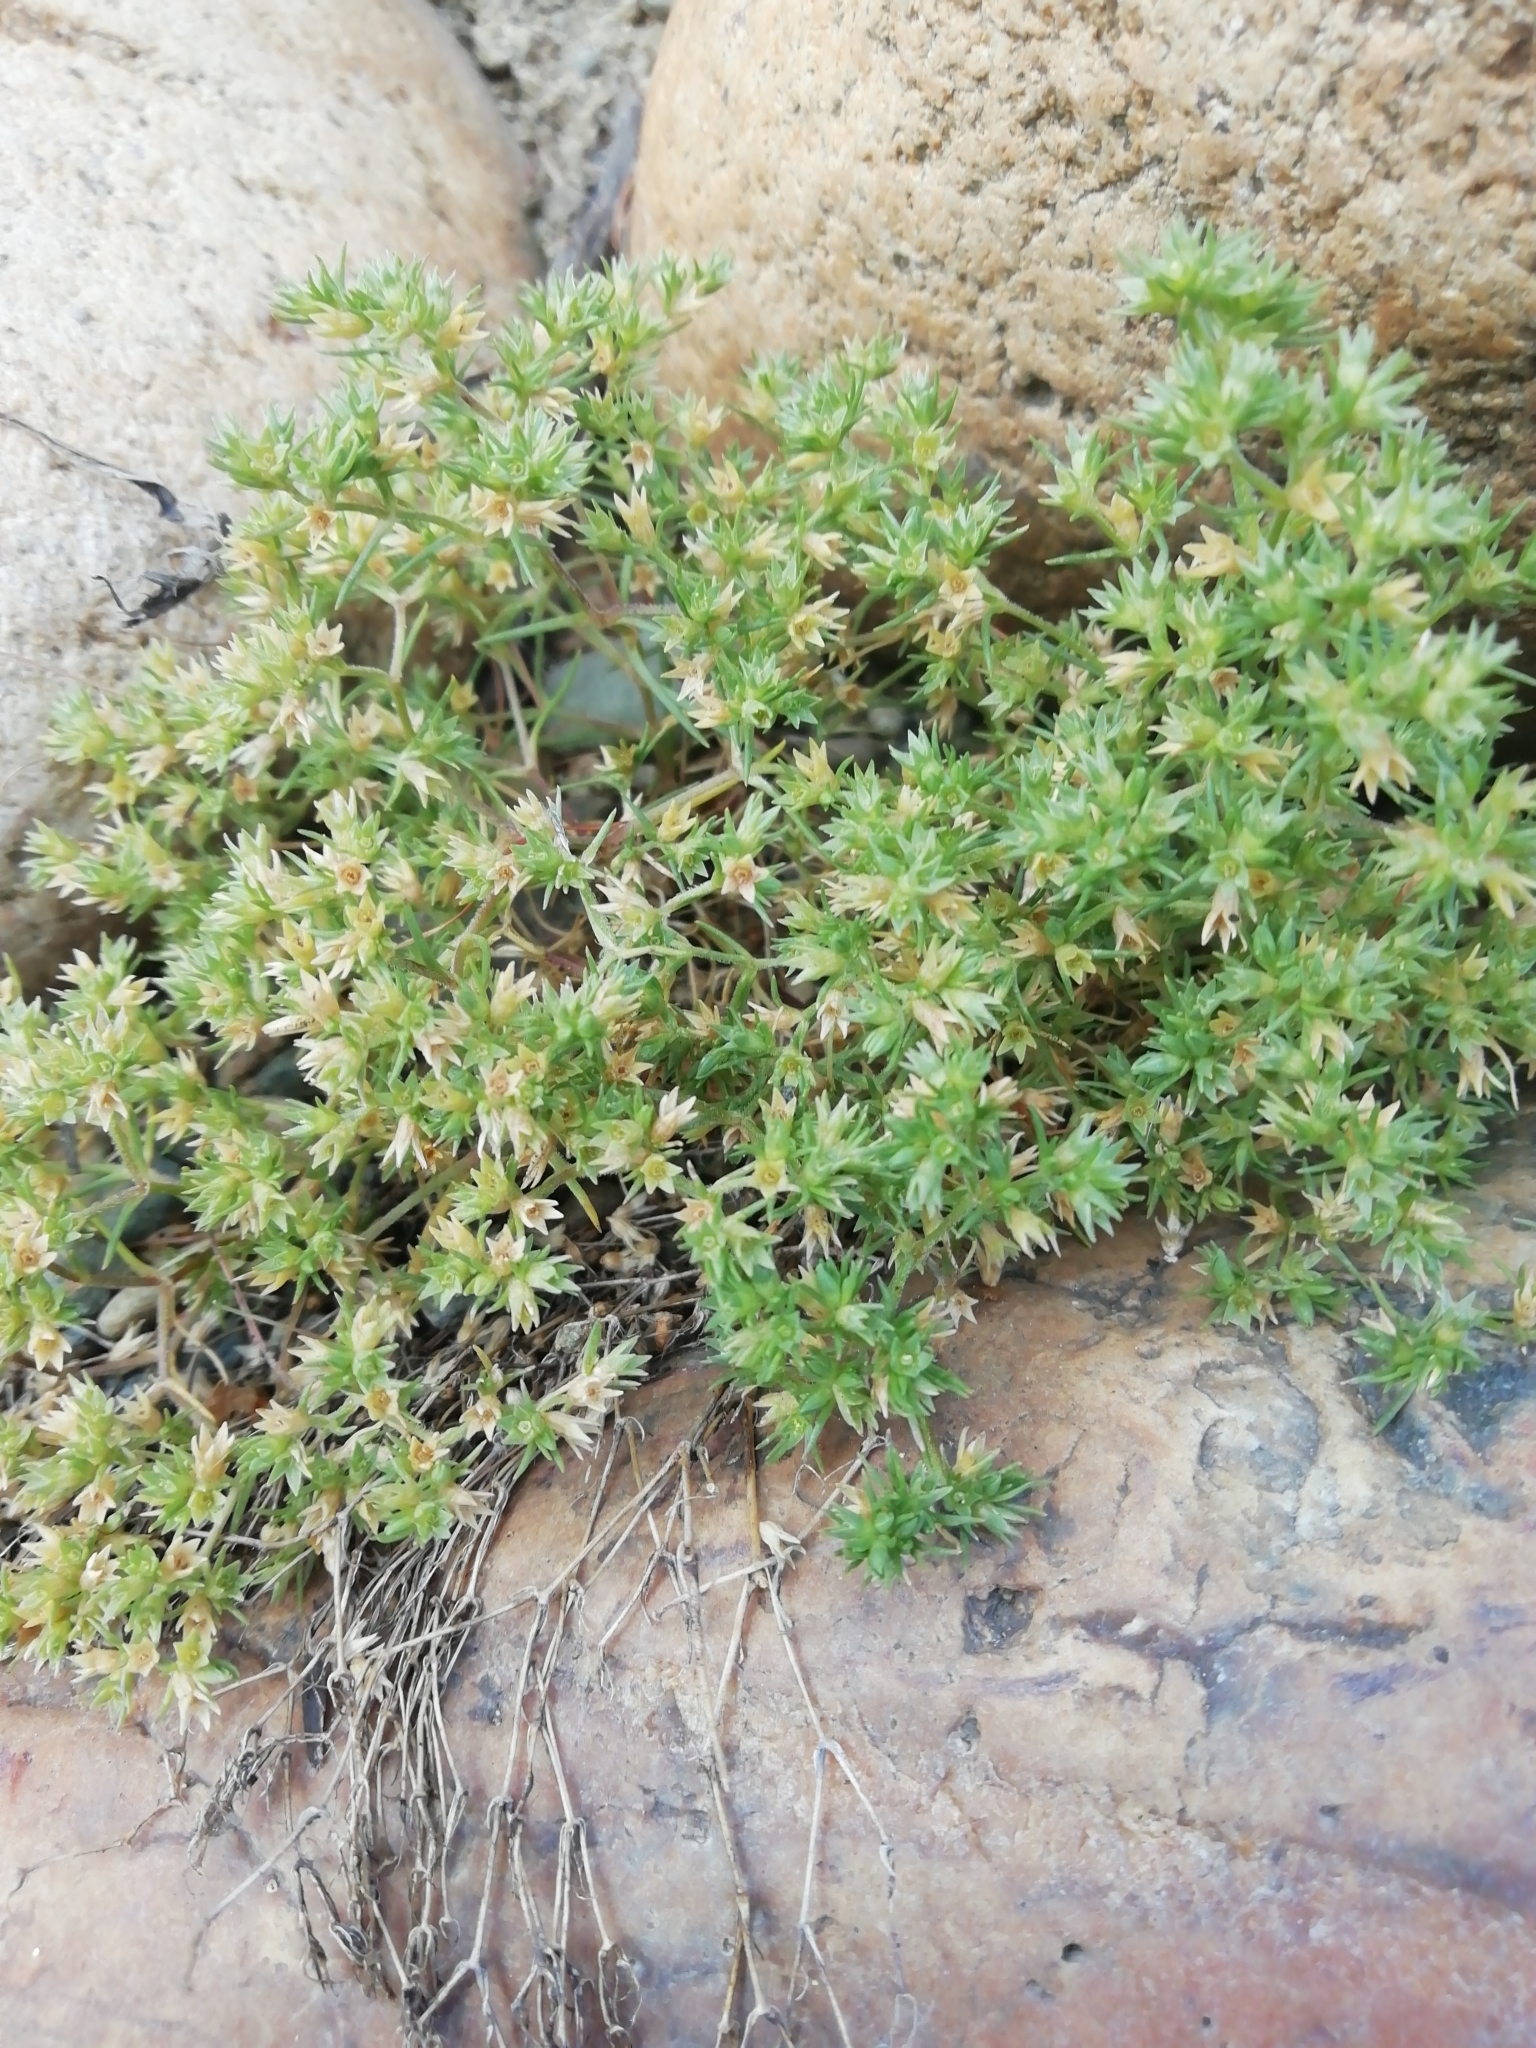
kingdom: Plantae
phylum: Tracheophyta
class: Magnoliopsida
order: Caryophyllales
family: Caryophyllaceae
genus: Scleranthus
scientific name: Scleranthus annuus
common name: Annual knawel
